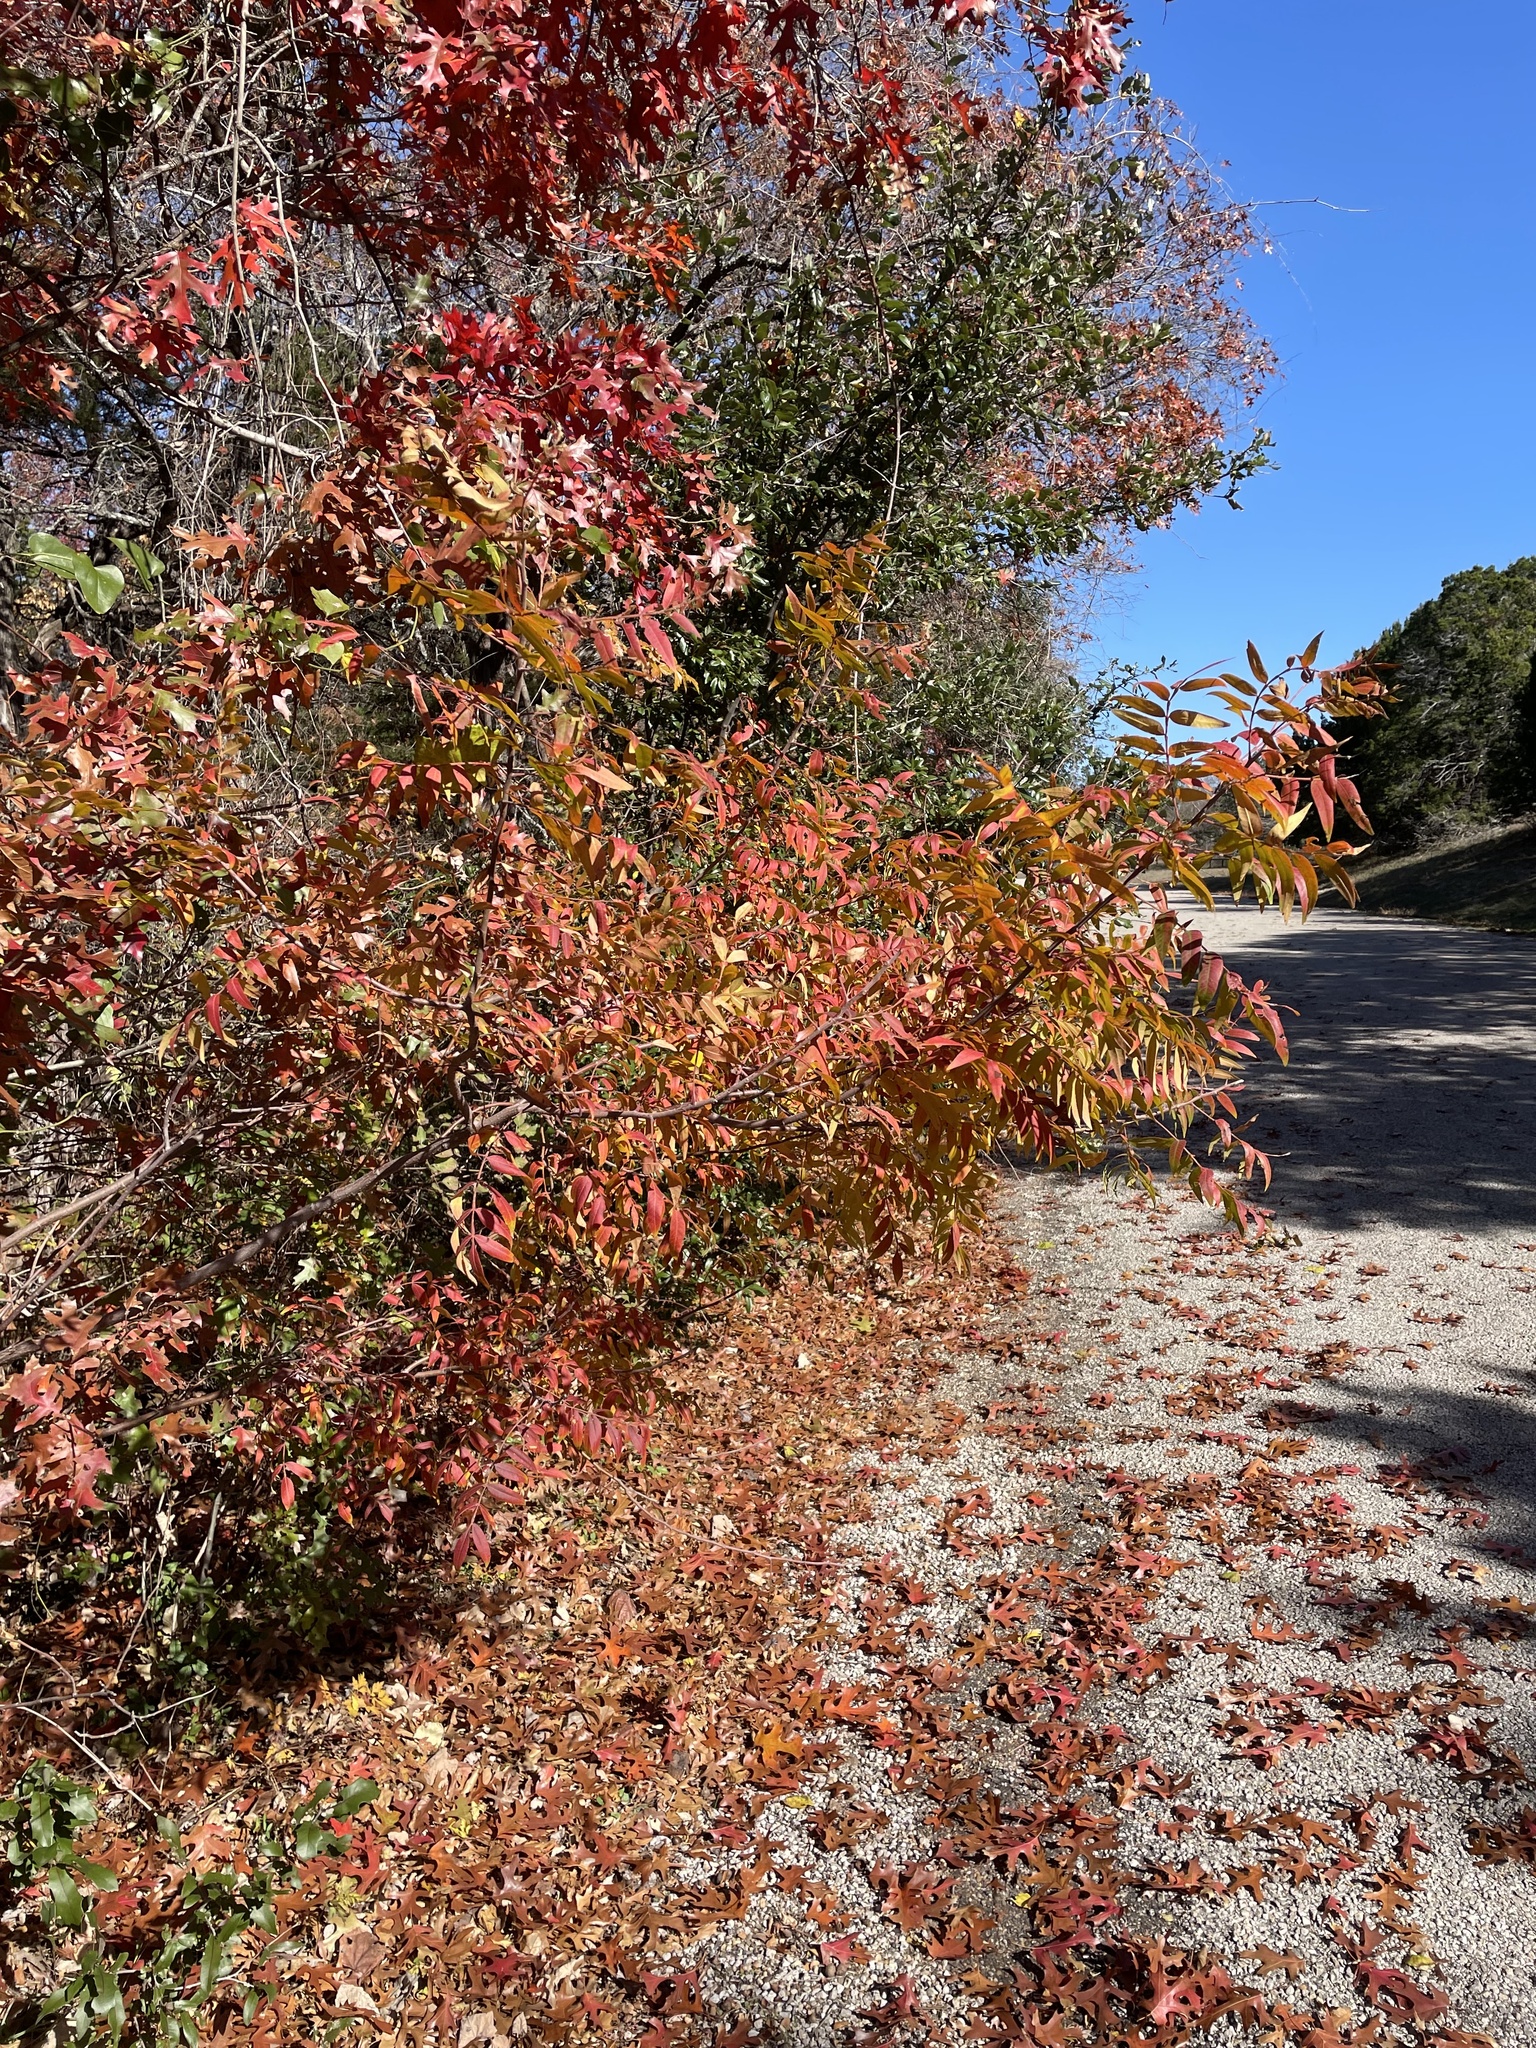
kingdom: Plantae
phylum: Tracheophyta
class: Magnoliopsida
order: Sapindales
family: Anacardiaceae
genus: Rhus
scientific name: Rhus lanceolata
